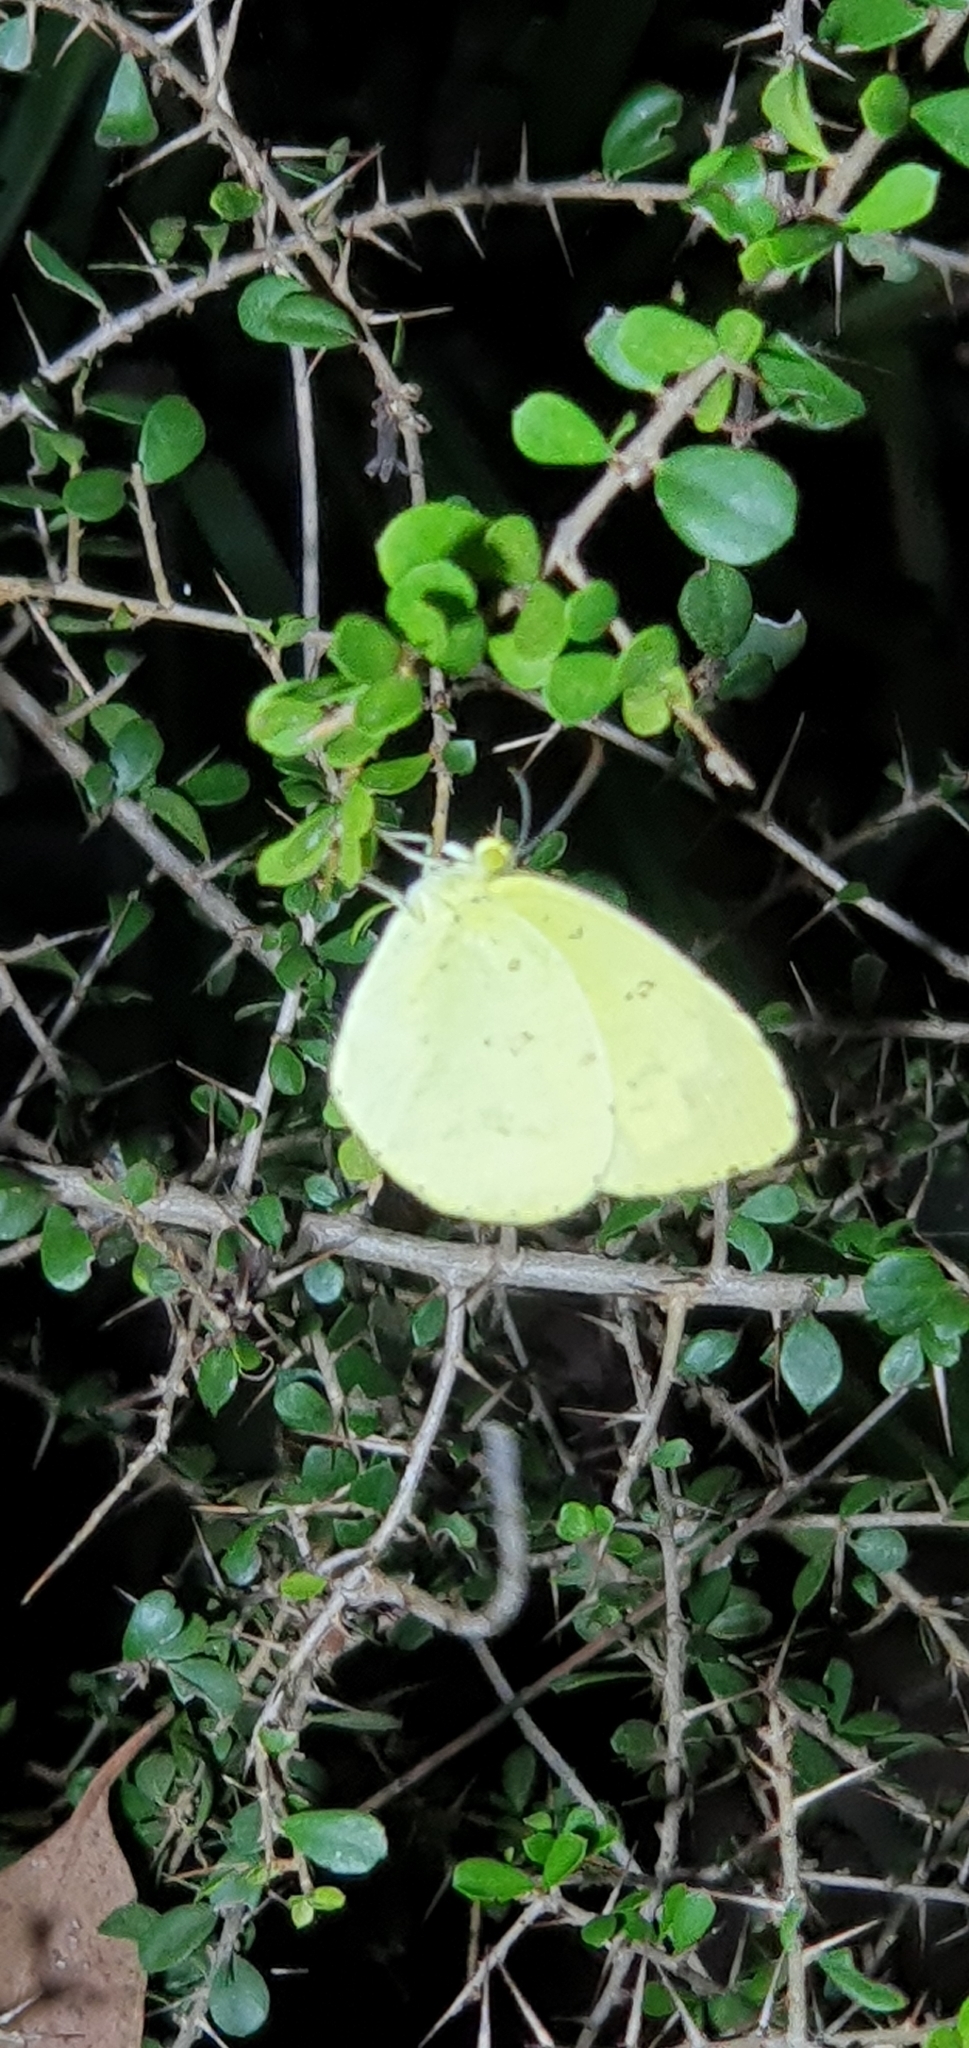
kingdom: Animalia
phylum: Arthropoda
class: Insecta
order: Lepidoptera
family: Pieridae
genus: Eurema
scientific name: Eurema hecabe
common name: Pale grass yellow
